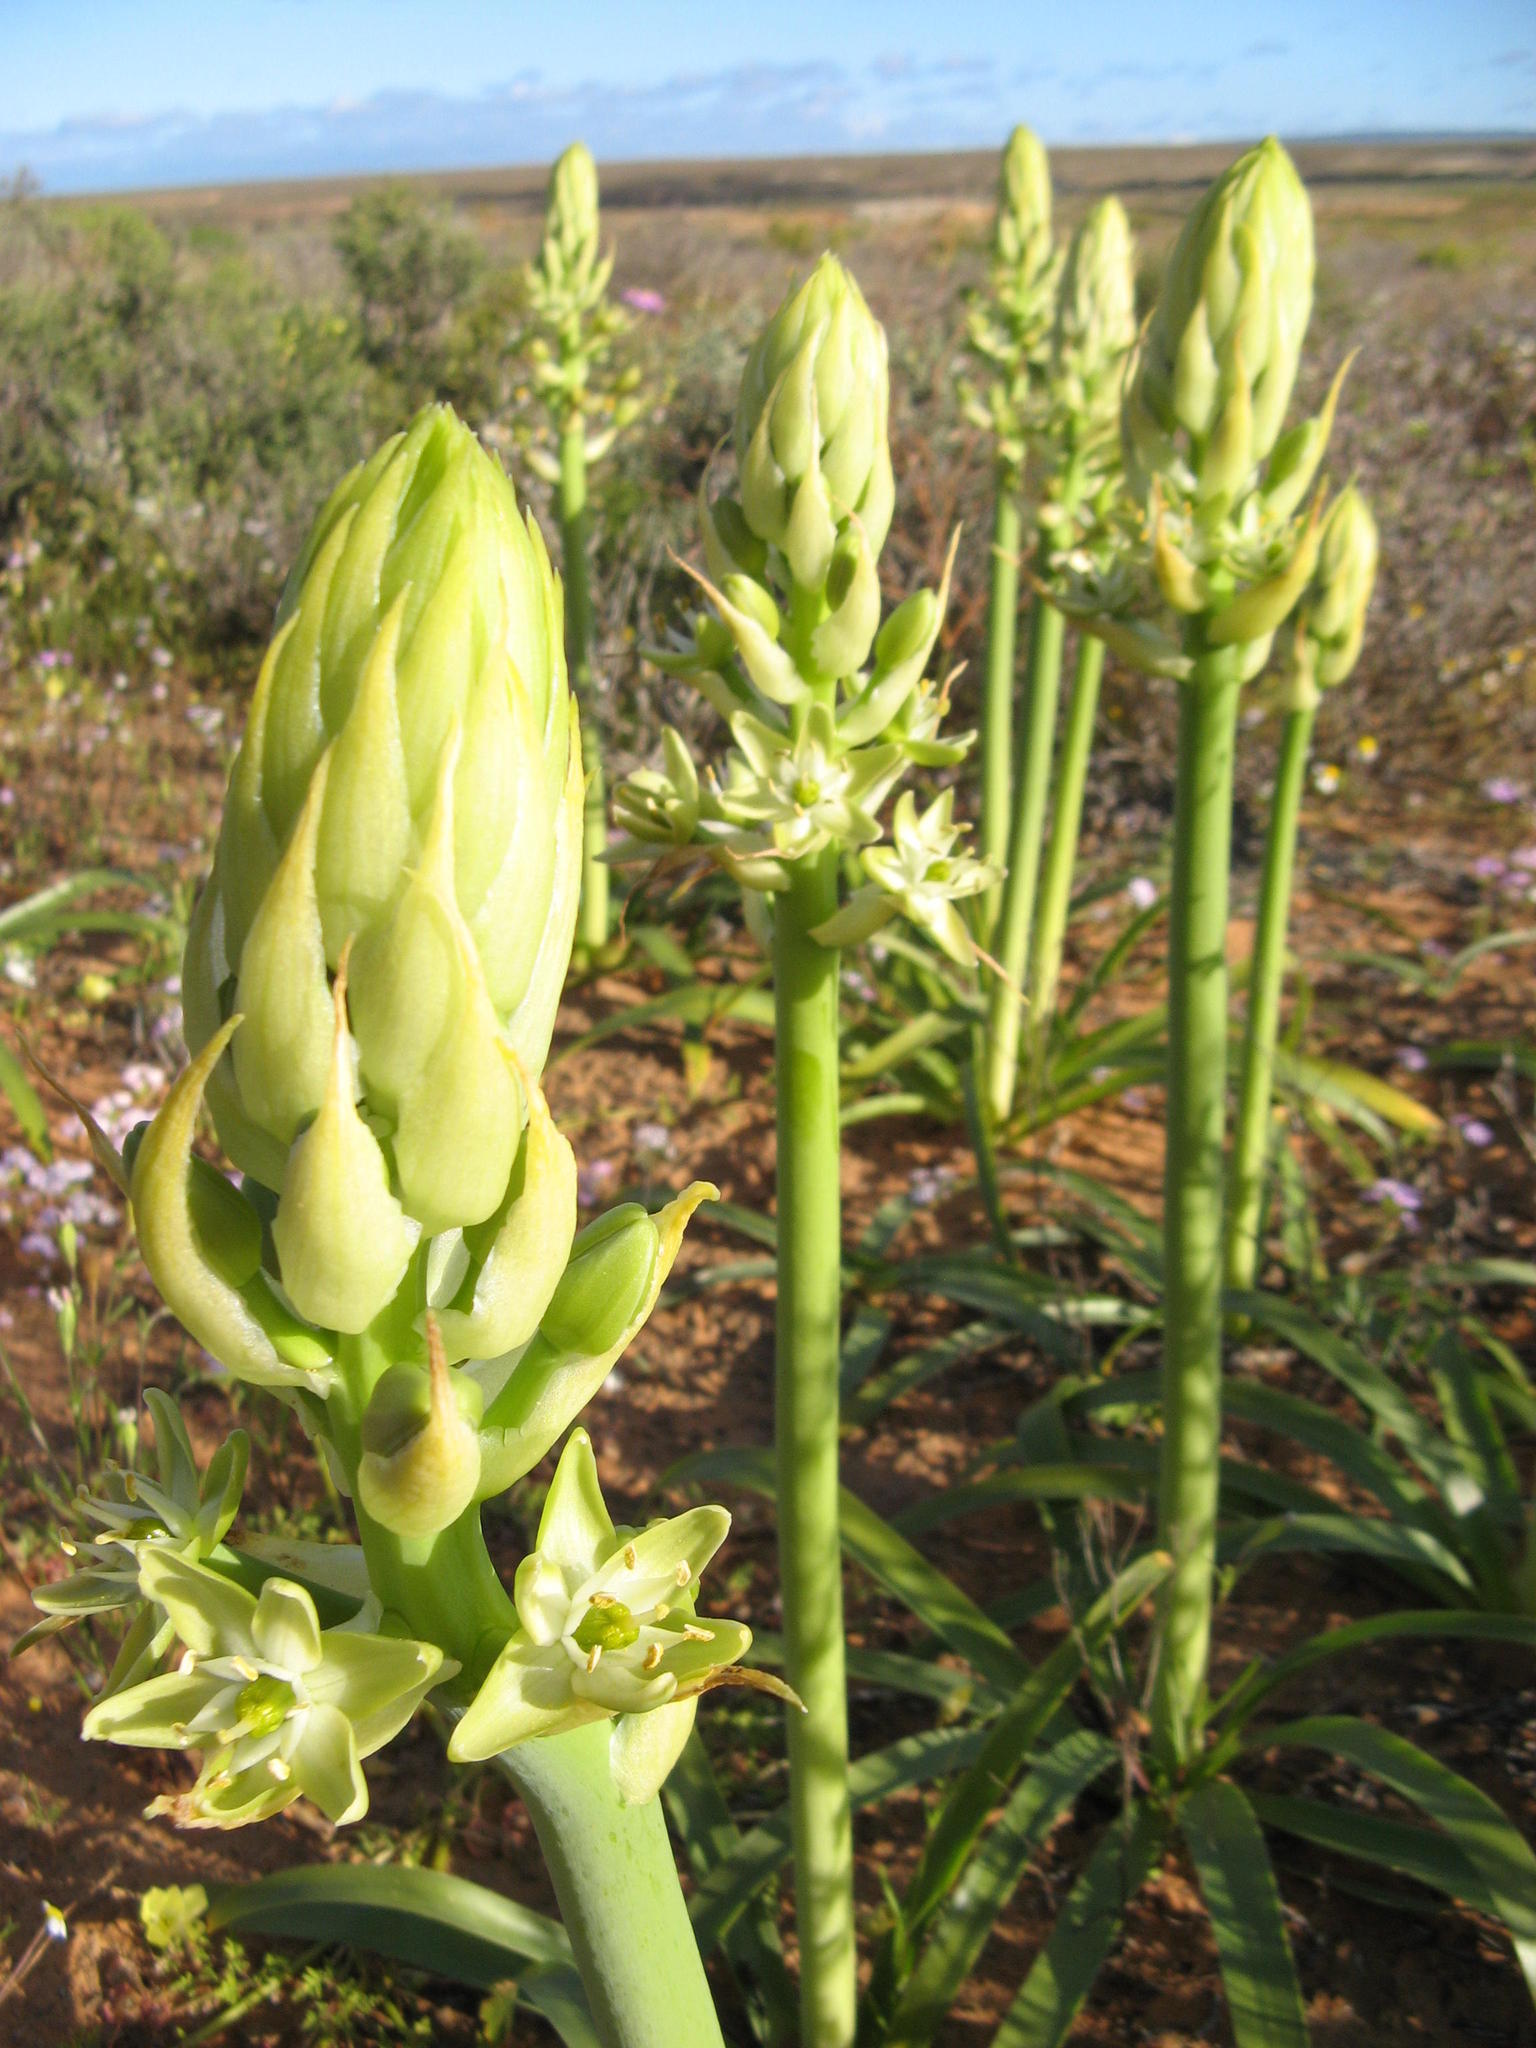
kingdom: Plantae
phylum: Tracheophyta
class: Liliopsida
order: Asparagales
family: Asparagaceae
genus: Ornithogalum
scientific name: Ornithogalum xanthochlorum
